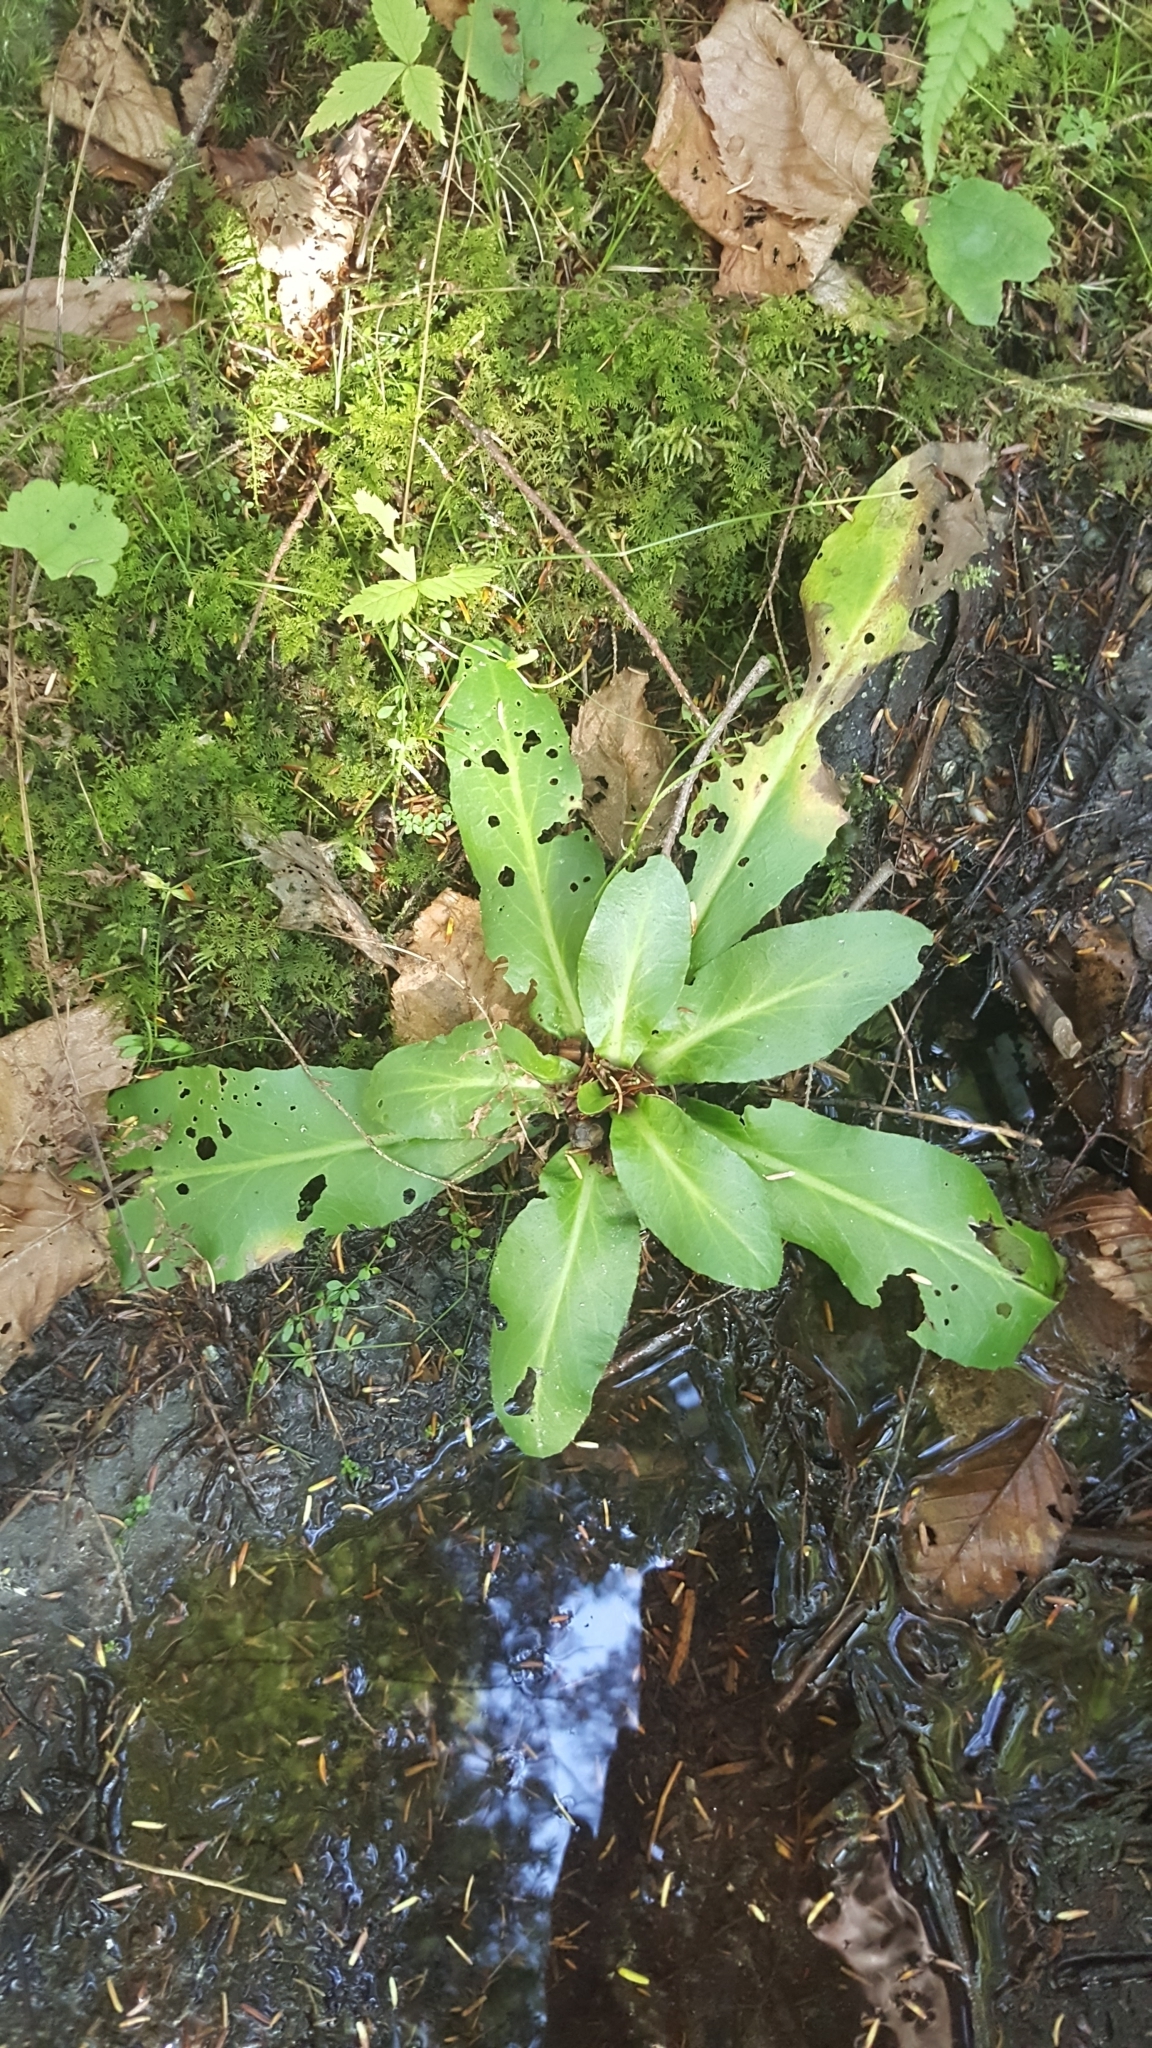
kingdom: Plantae
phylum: Tracheophyta
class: Magnoliopsida
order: Saxifragales
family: Saxifragaceae
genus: Micranthes
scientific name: Micranthes pensylvanica
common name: Marsh saxifrage
